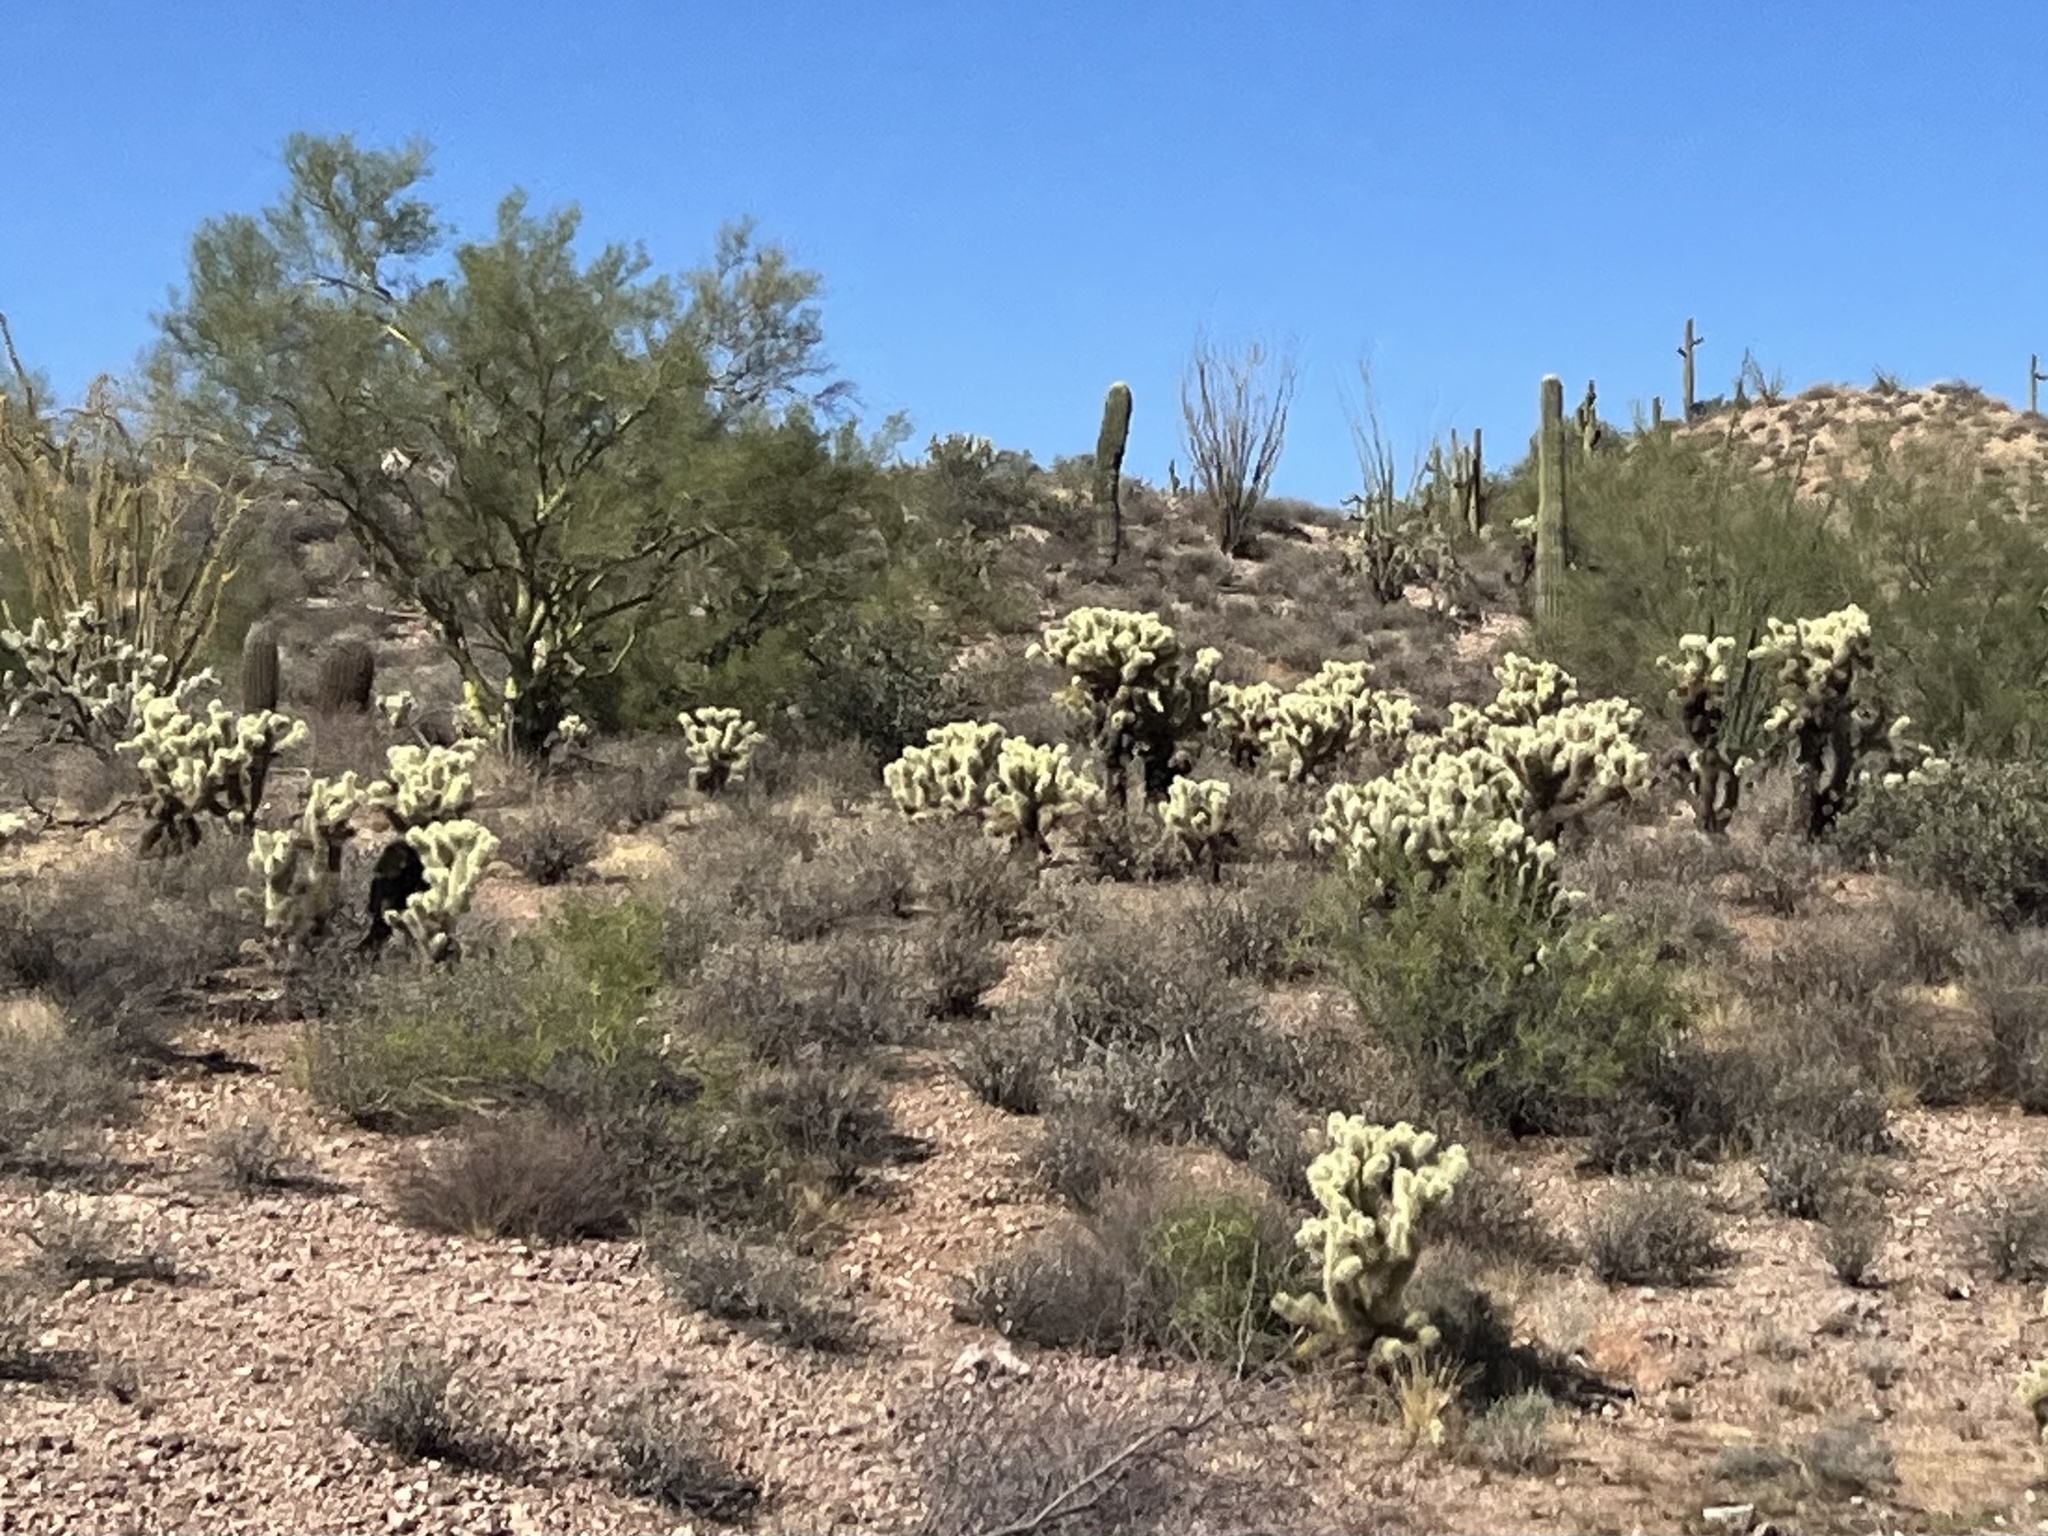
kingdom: Plantae
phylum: Tracheophyta
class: Magnoliopsida
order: Caryophyllales
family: Cactaceae
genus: Cylindropuntia
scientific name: Cylindropuntia fosbergii
